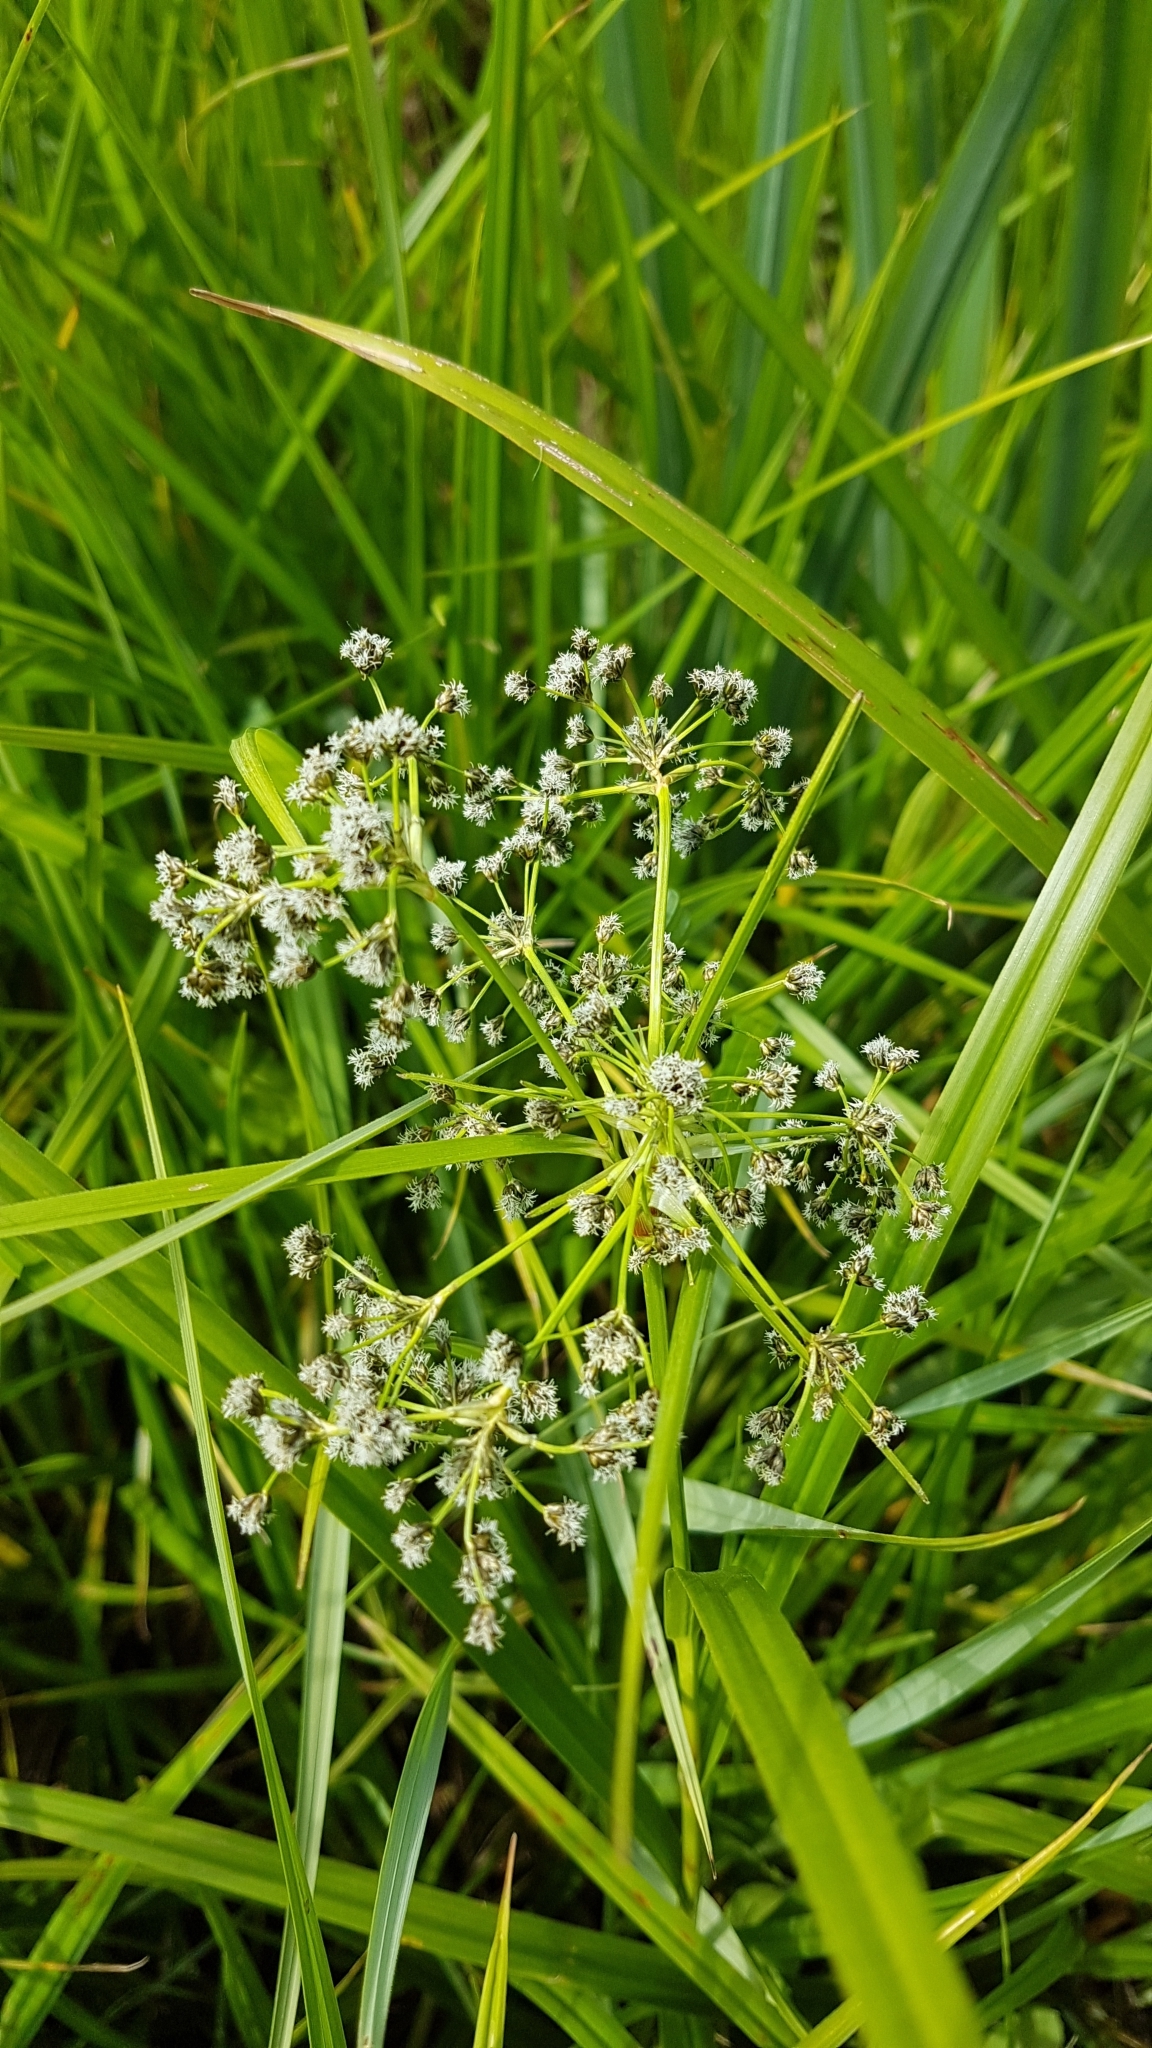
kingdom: Plantae
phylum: Tracheophyta
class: Liliopsida
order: Poales
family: Cyperaceae
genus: Scirpus
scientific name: Scirpus sylvaticus
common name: Wood club-rush
